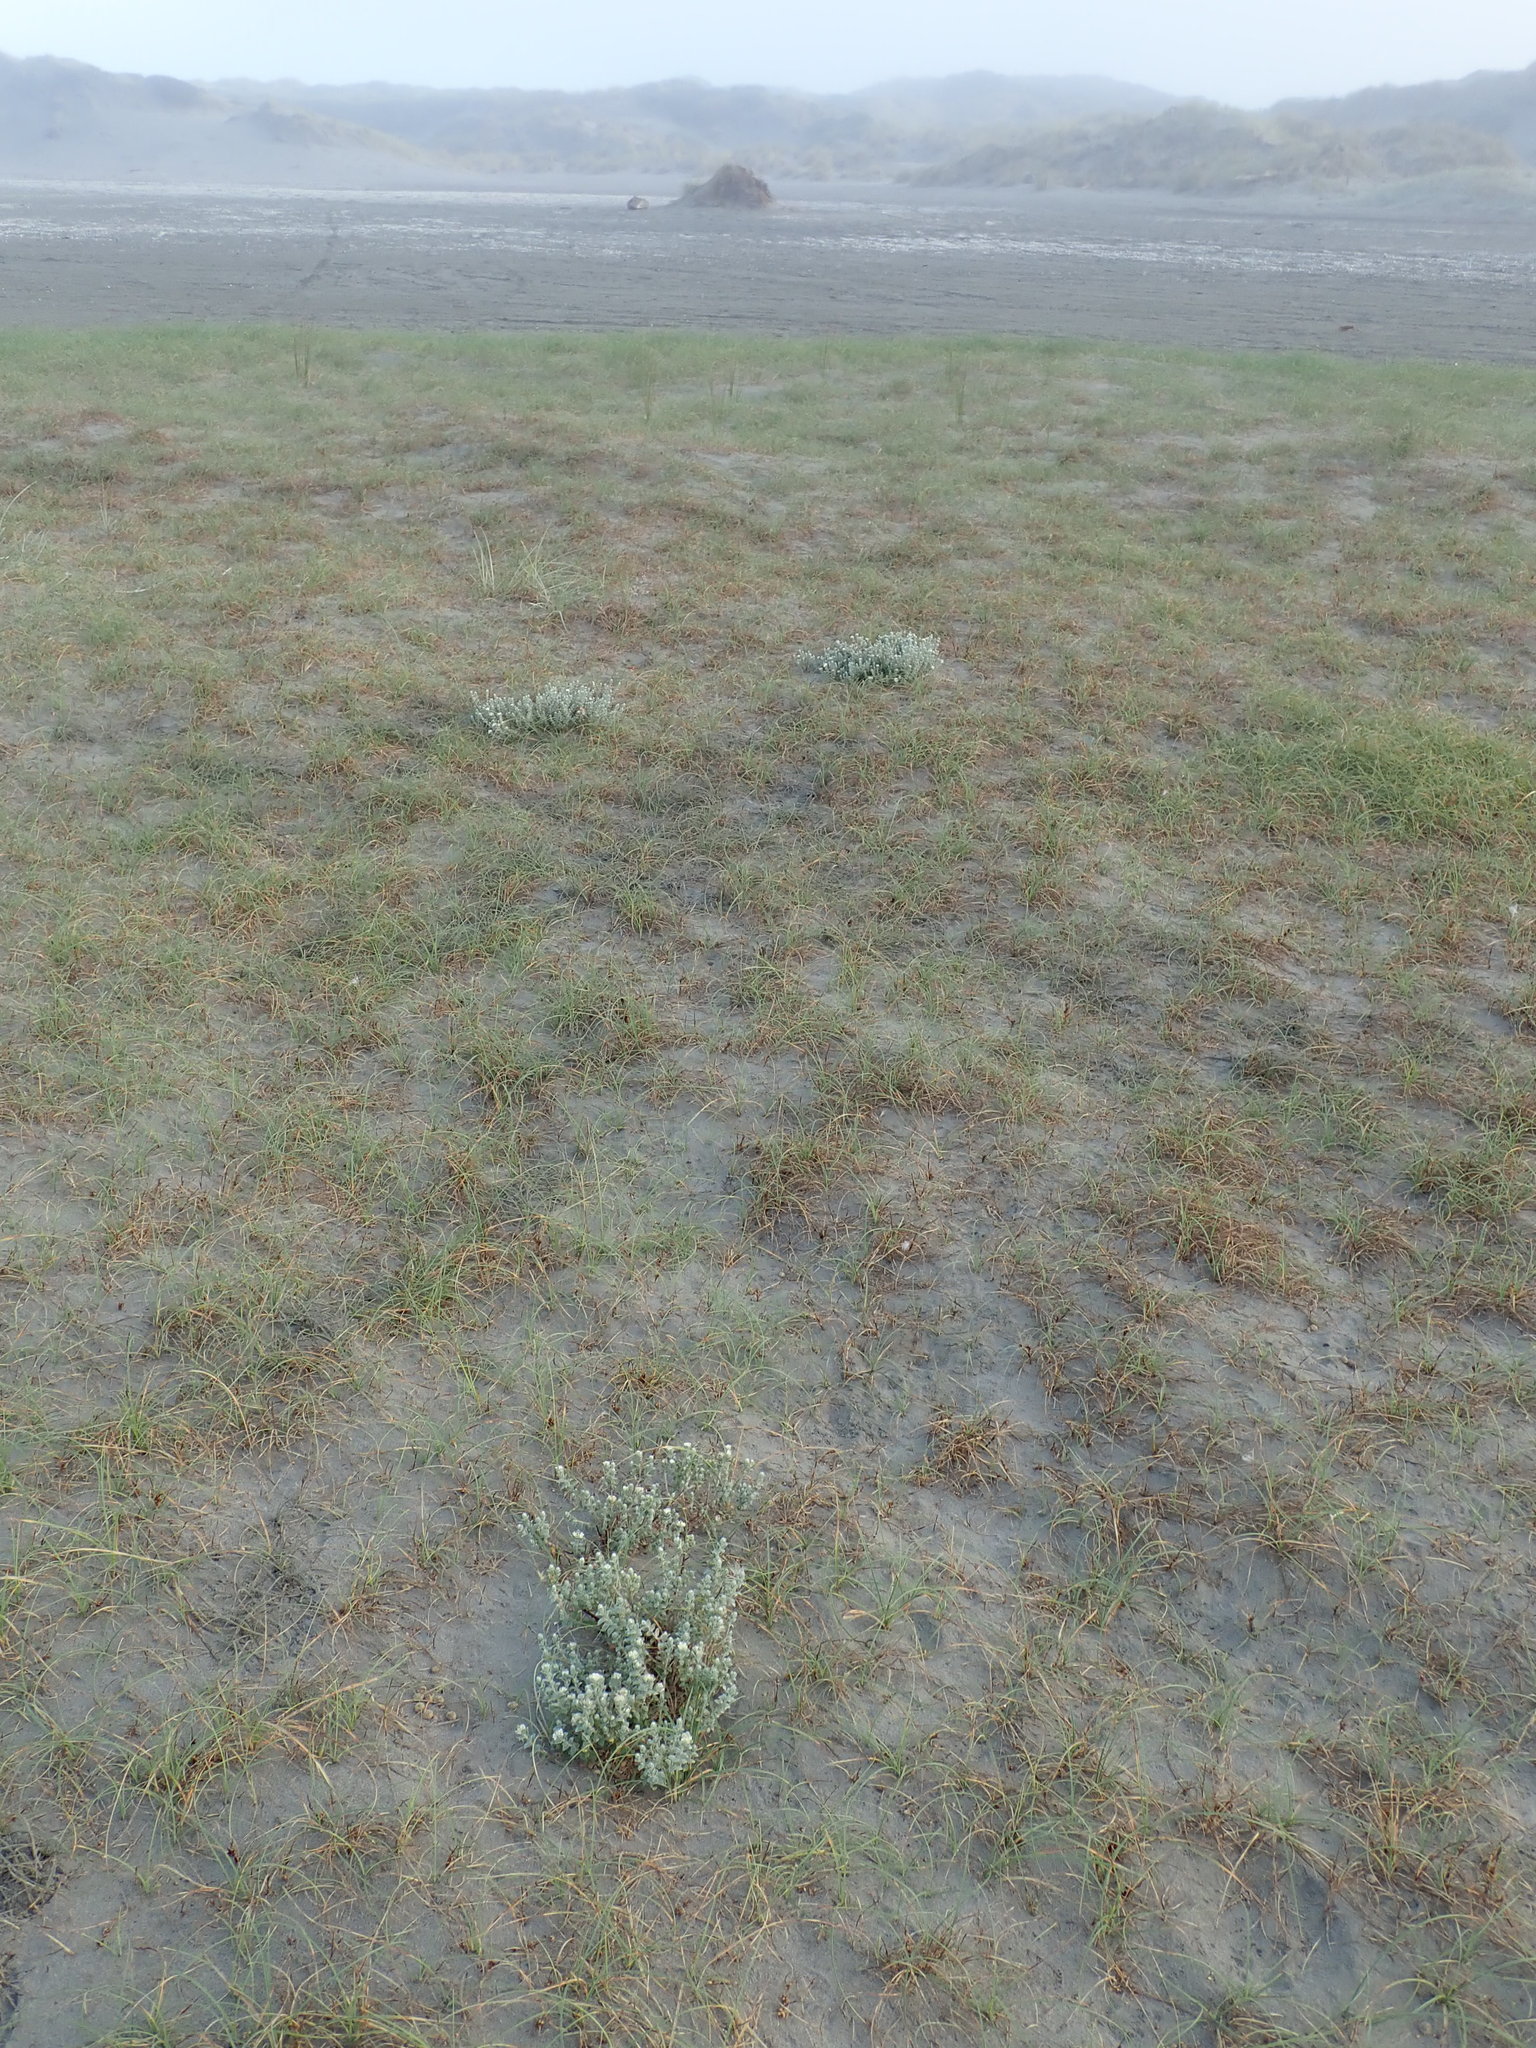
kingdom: Plantae
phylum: Tracheophyta
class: Magnoliopsida
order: Malvales
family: Thymelaeaceae
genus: Pimelea
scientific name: Pimelea villosa
